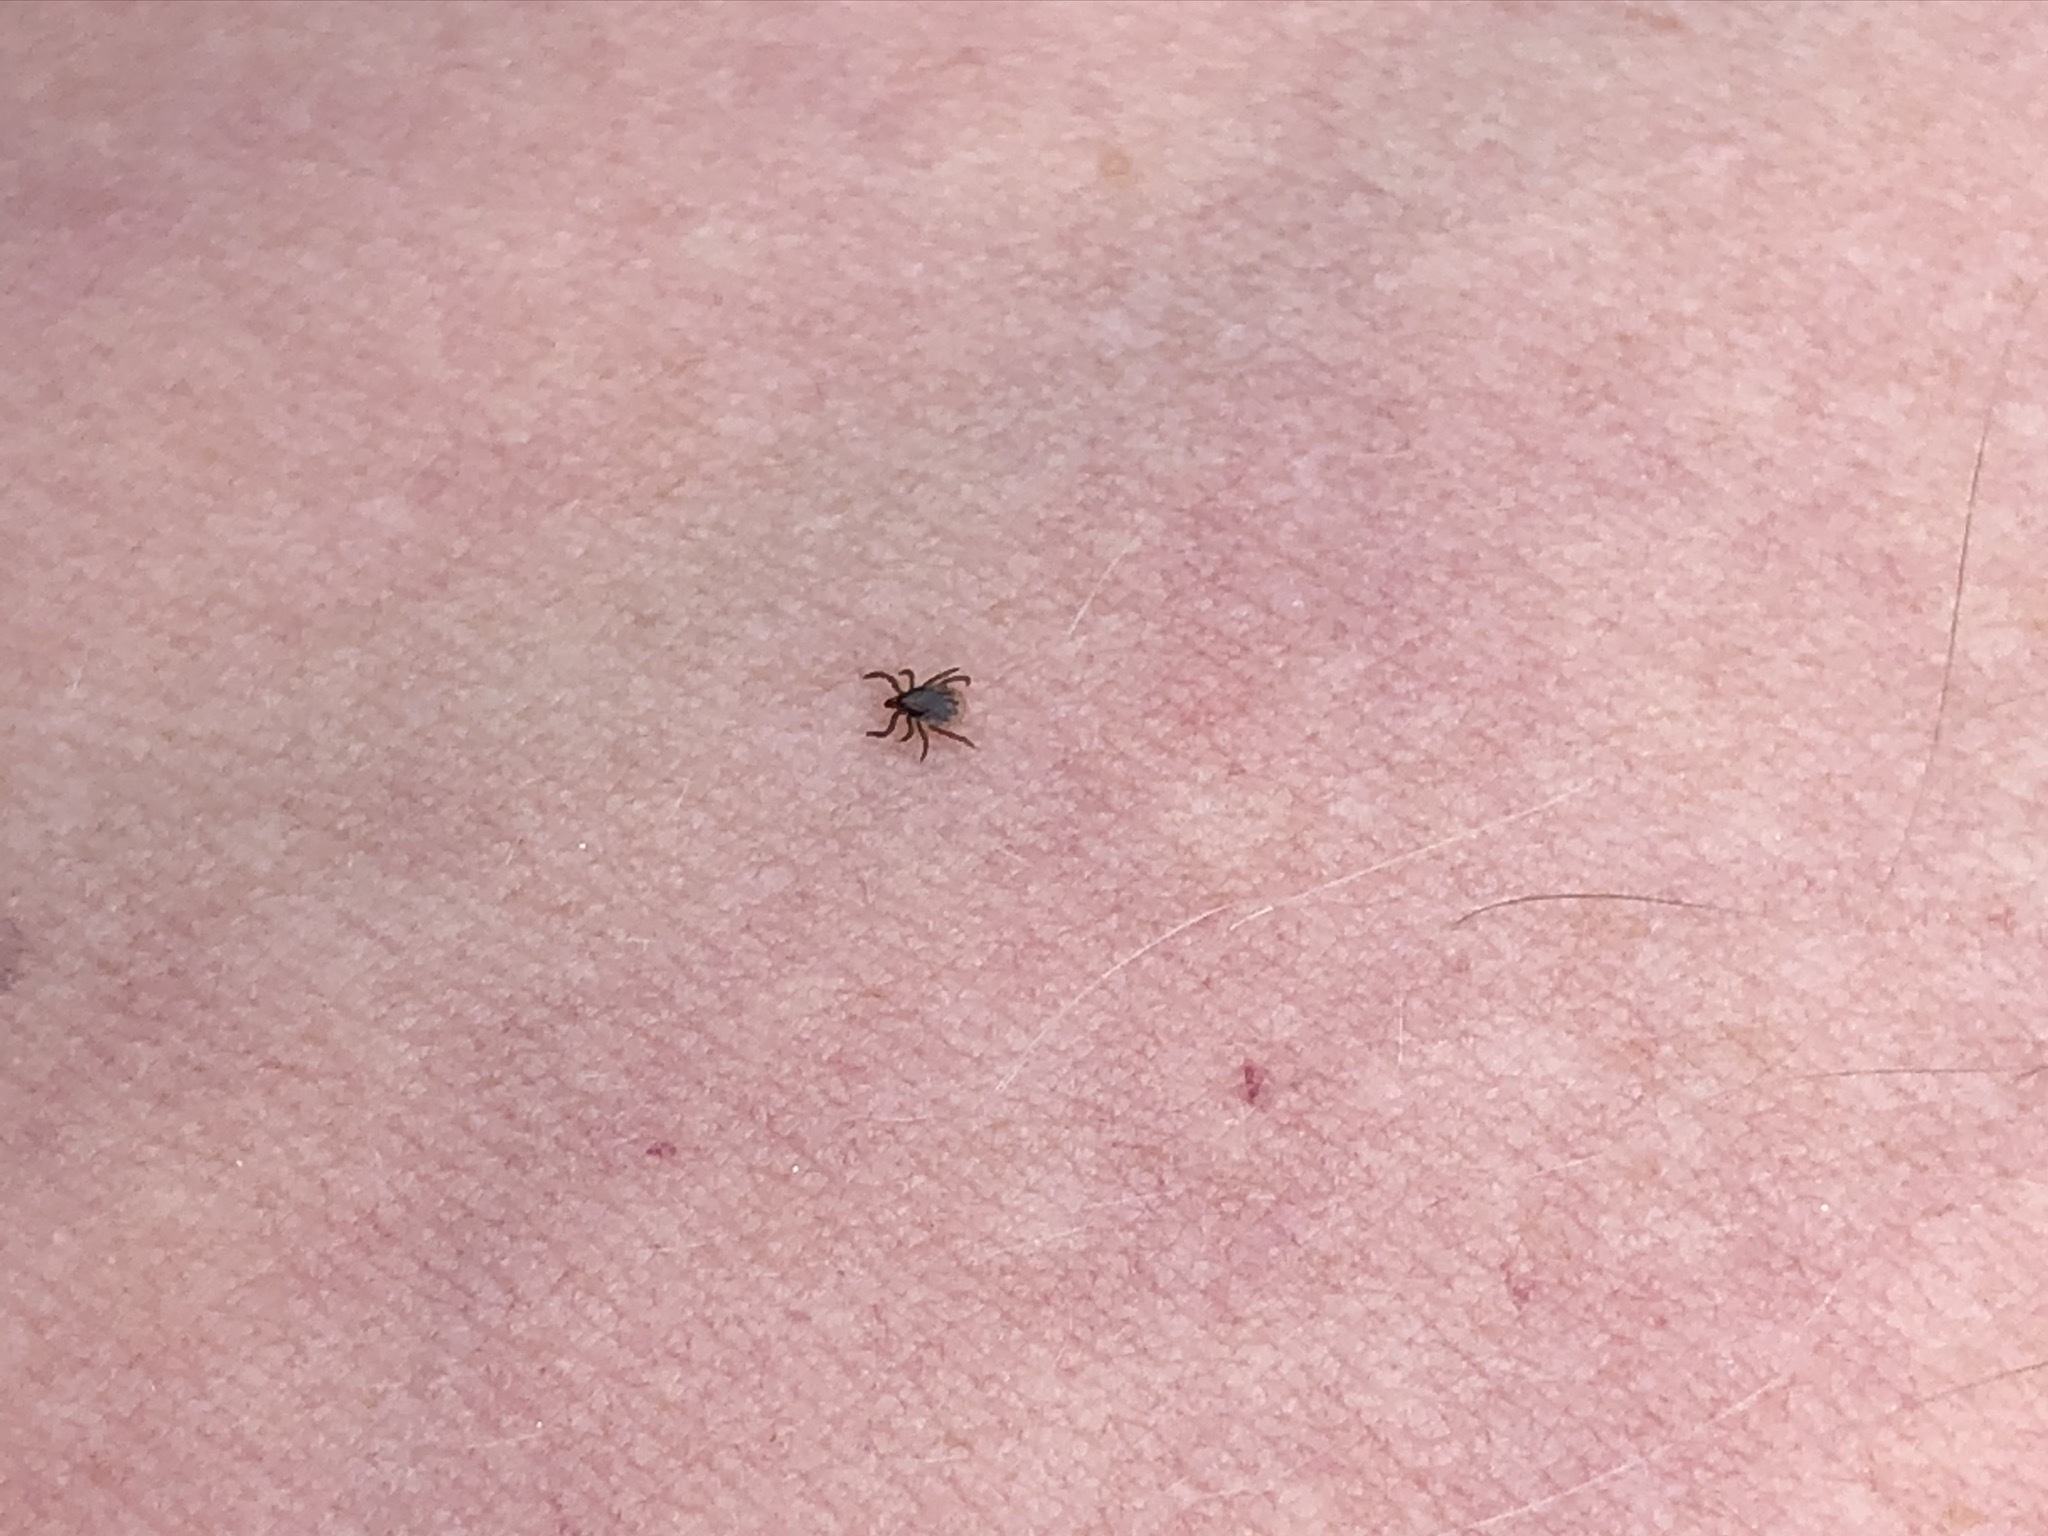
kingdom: Animalia
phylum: Arthropoda
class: Arachnida
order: Ixodida
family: Ixodidae
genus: Ixodes
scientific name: Ixodes ricinus
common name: Castor bean tick
